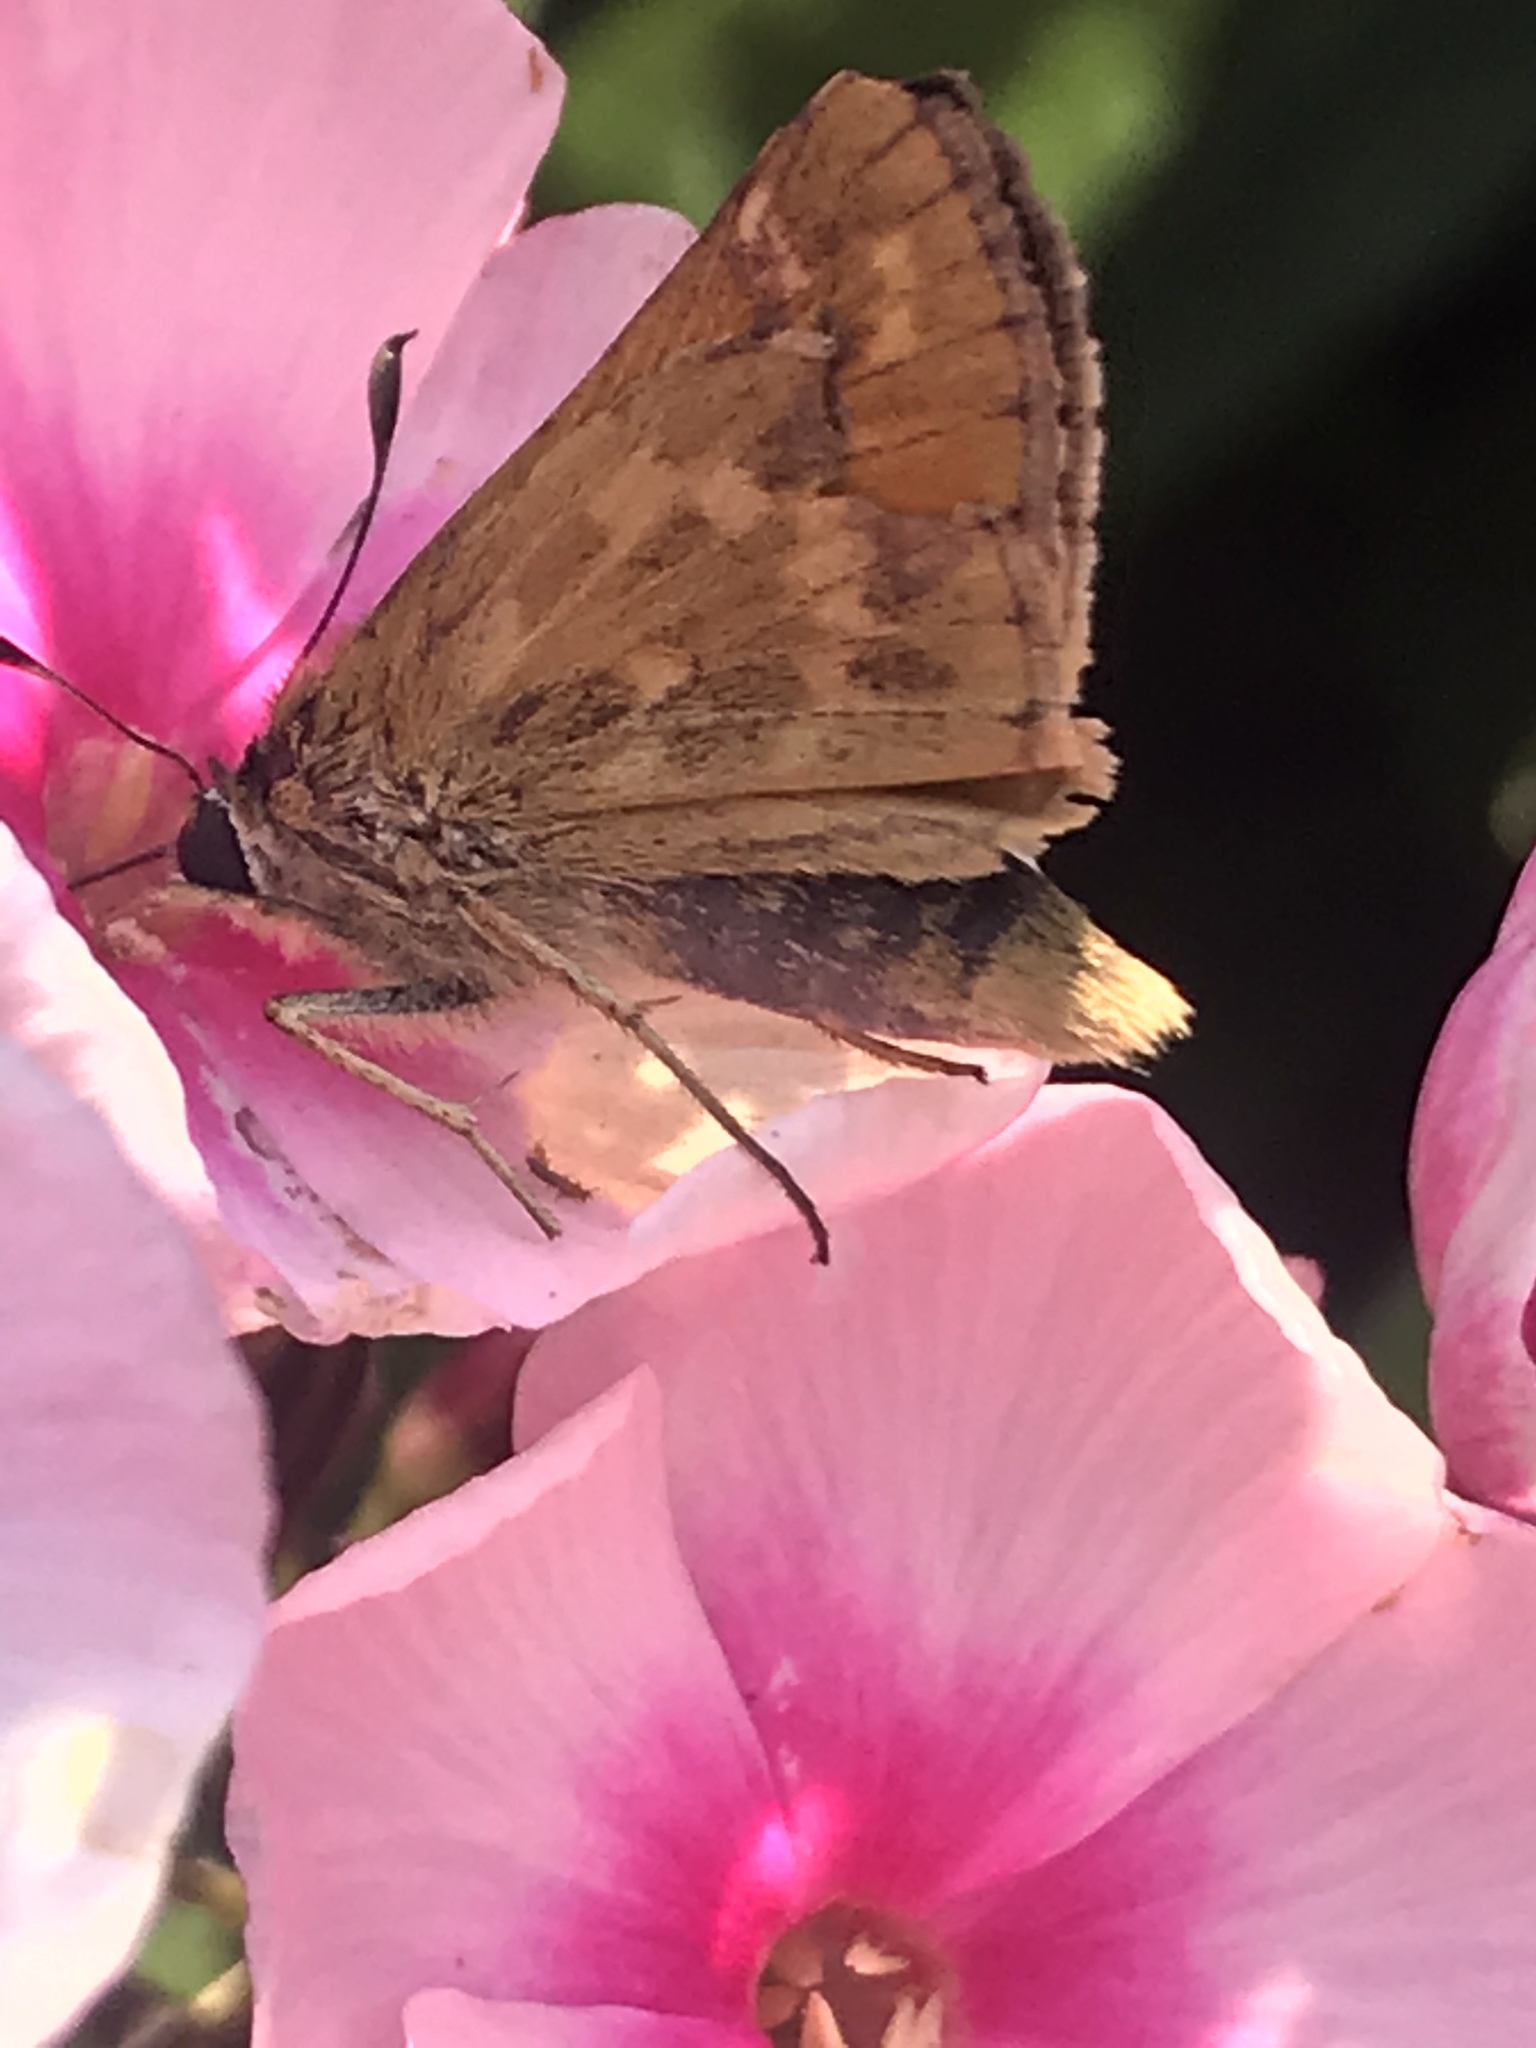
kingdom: Animalia
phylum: Arthropoda
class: Insecta
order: Lepidoptera
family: Hesperiidae
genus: Atalopedes
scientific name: Atalopedes campestris
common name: Sachem
